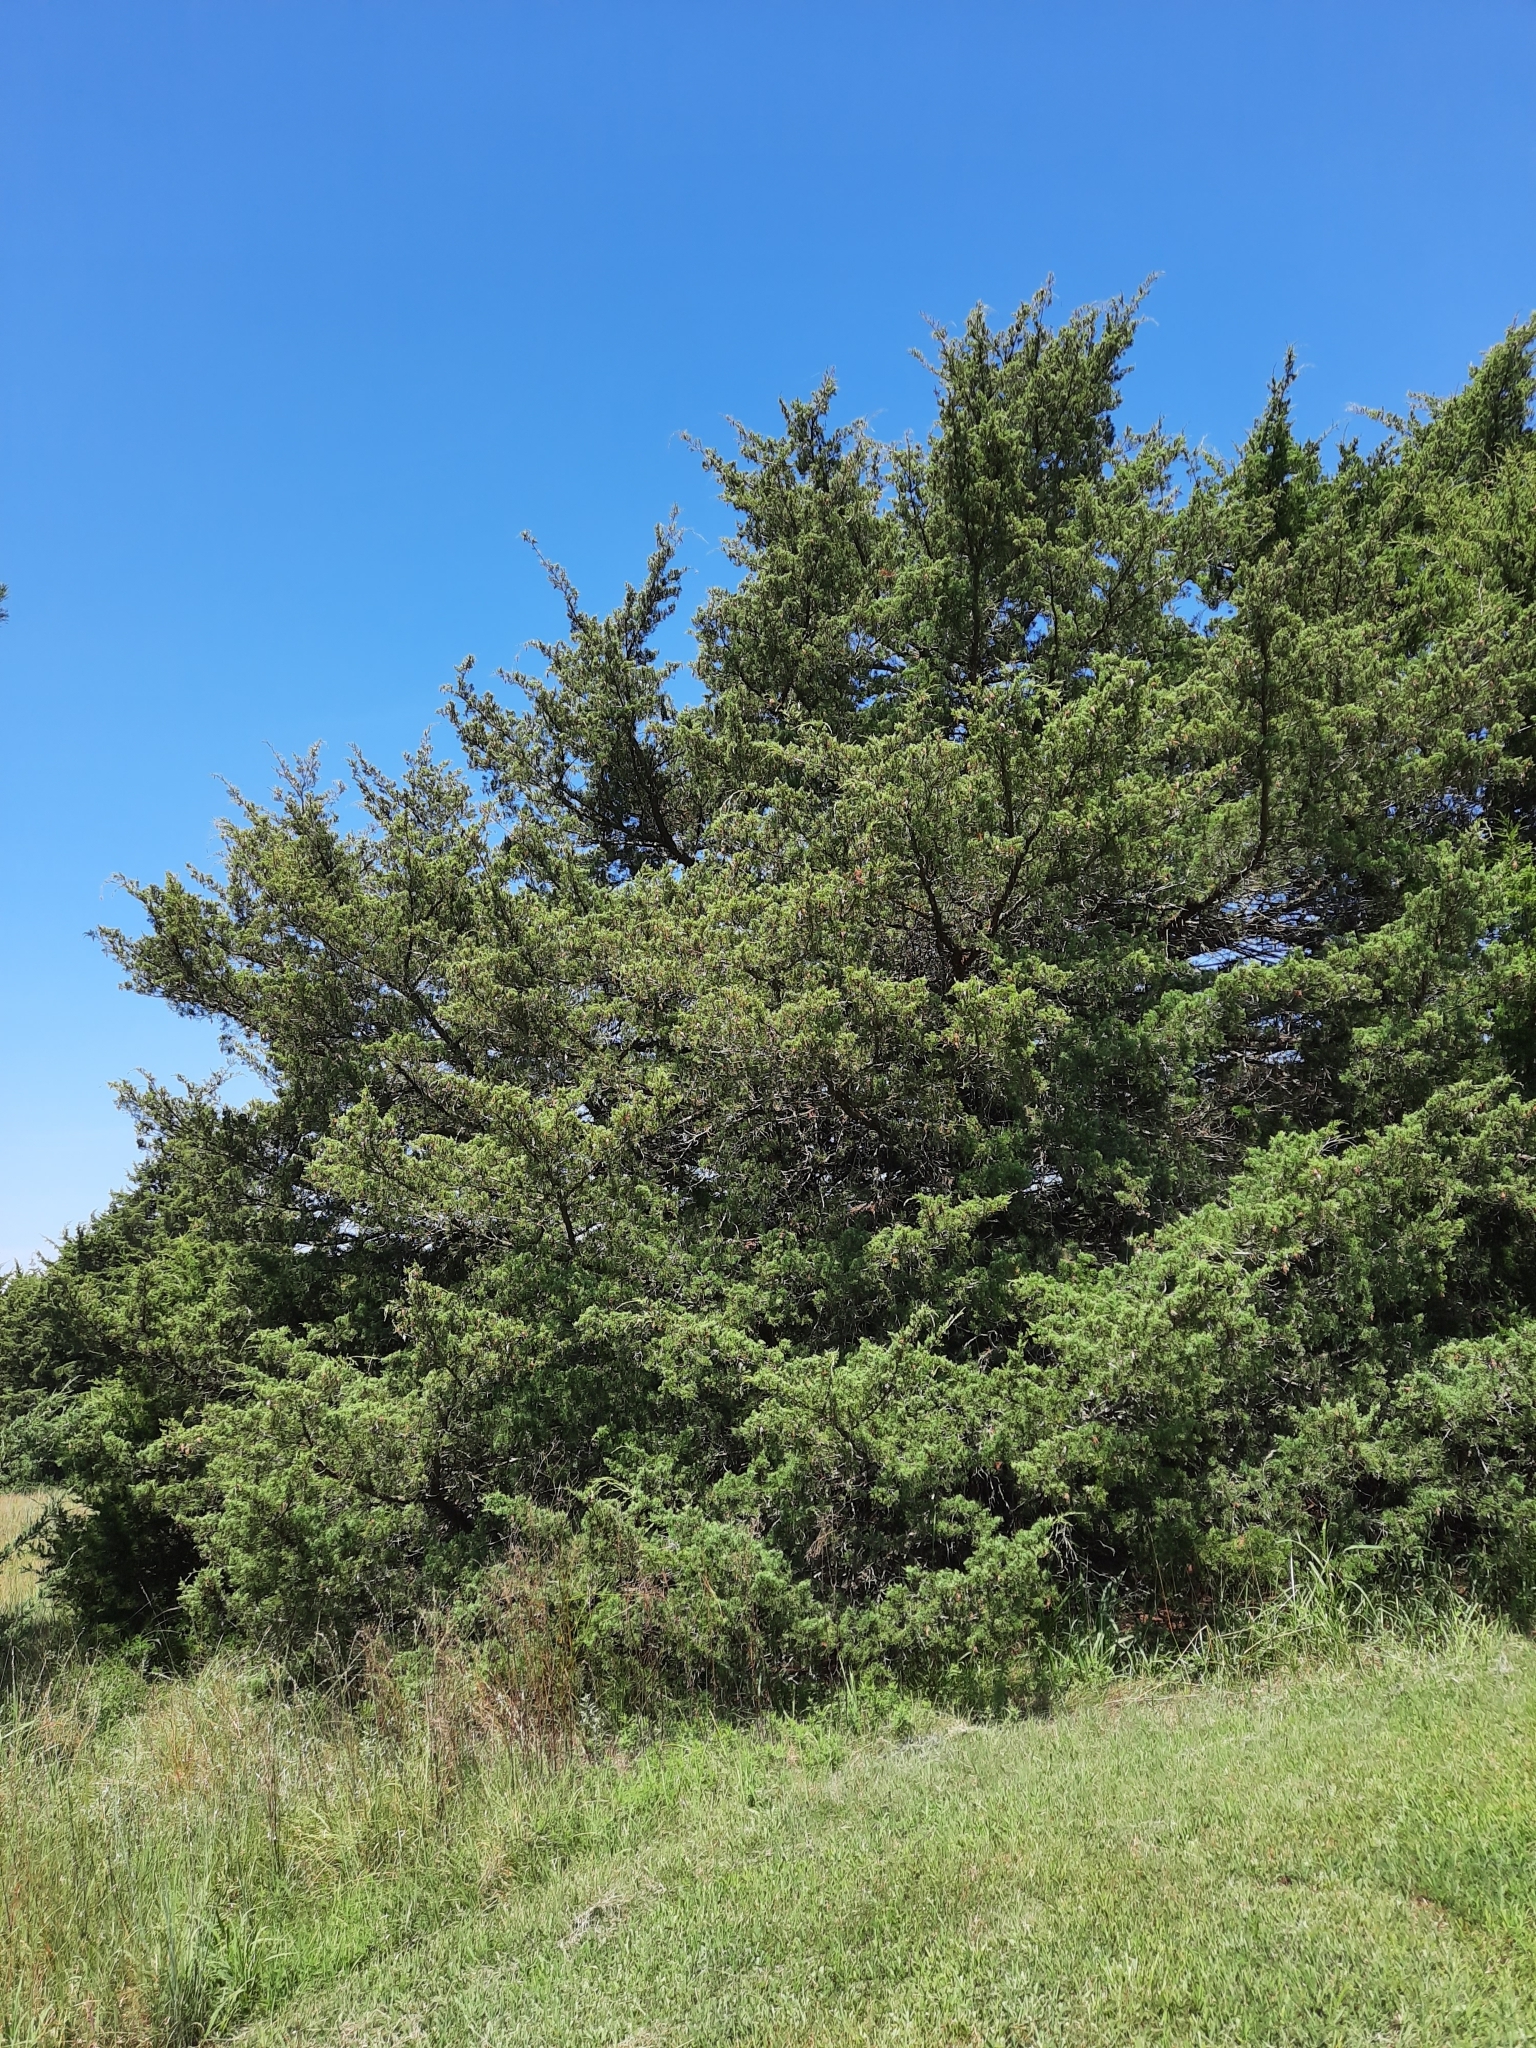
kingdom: Plantae
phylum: Tracheophyta
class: Pinopsida
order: Pinales
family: Cupressaceae
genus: Juniperus
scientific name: Juniperus virginiana
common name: Red juniper
